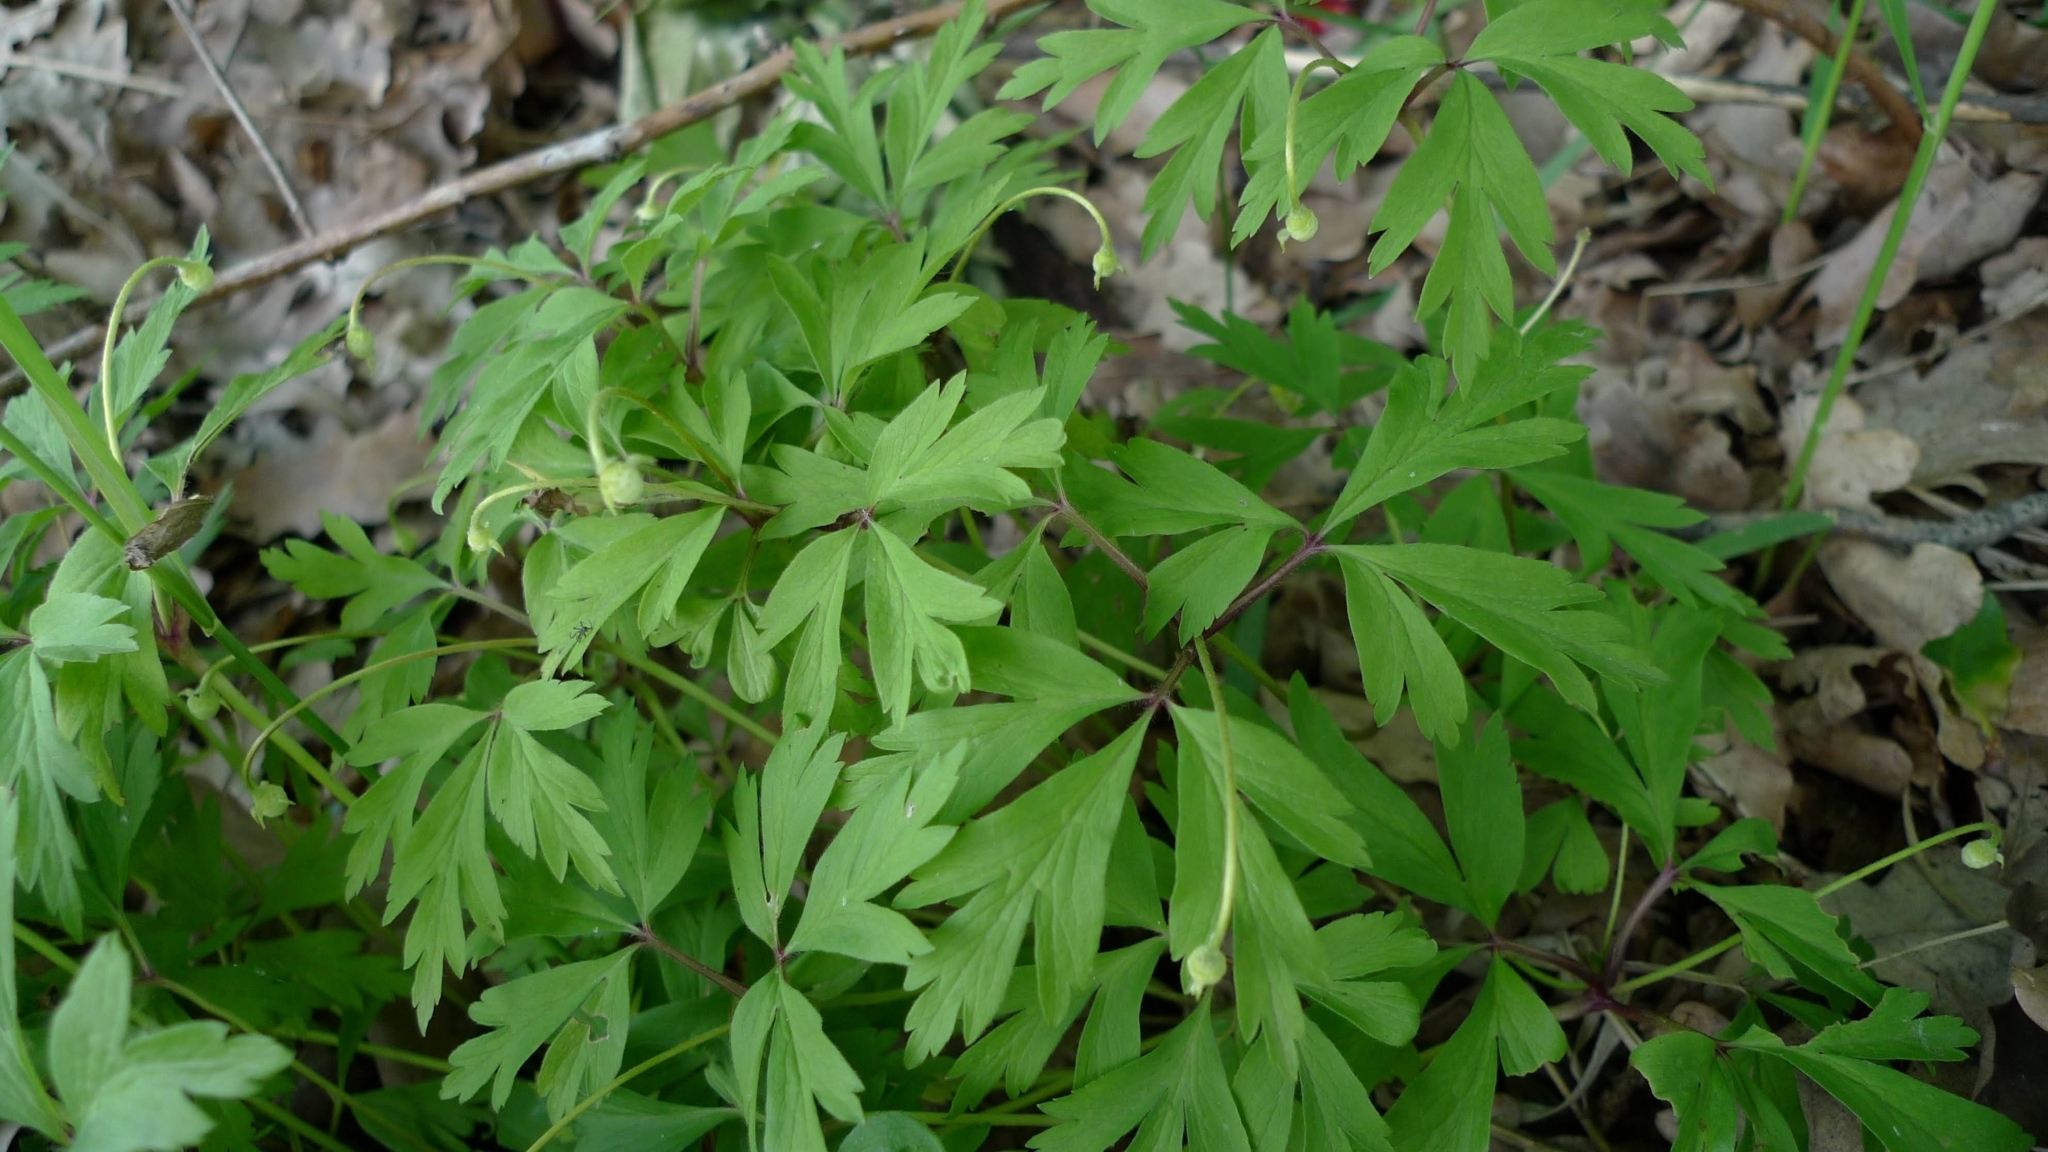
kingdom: Plantae
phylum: Tracheophyta
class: Magnoliopsida
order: Ranunculales
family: Ranunculaceae
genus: Anemone
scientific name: Anemone nemorosa
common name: Wood anemone
